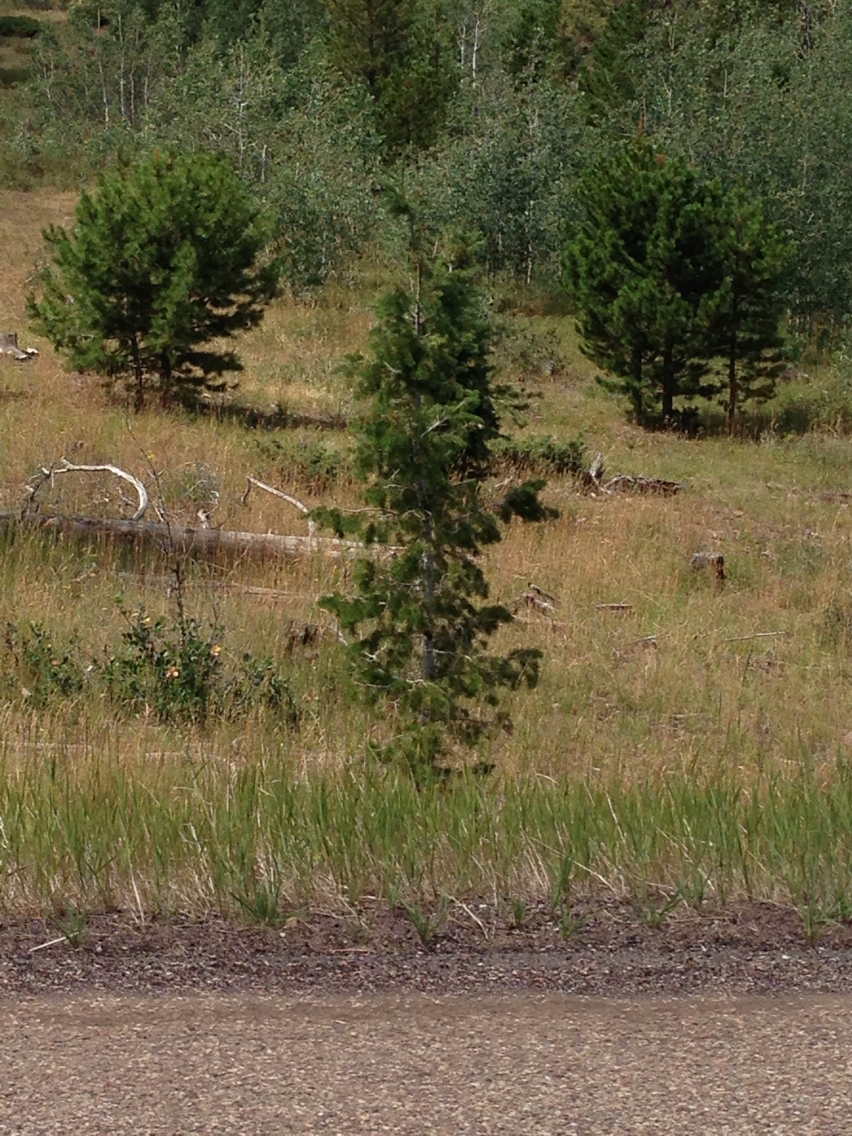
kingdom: Plantae
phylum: Tracheophyta
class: Pinopsida
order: Pinales
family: Pinaceae
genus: Abies
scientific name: Abies
